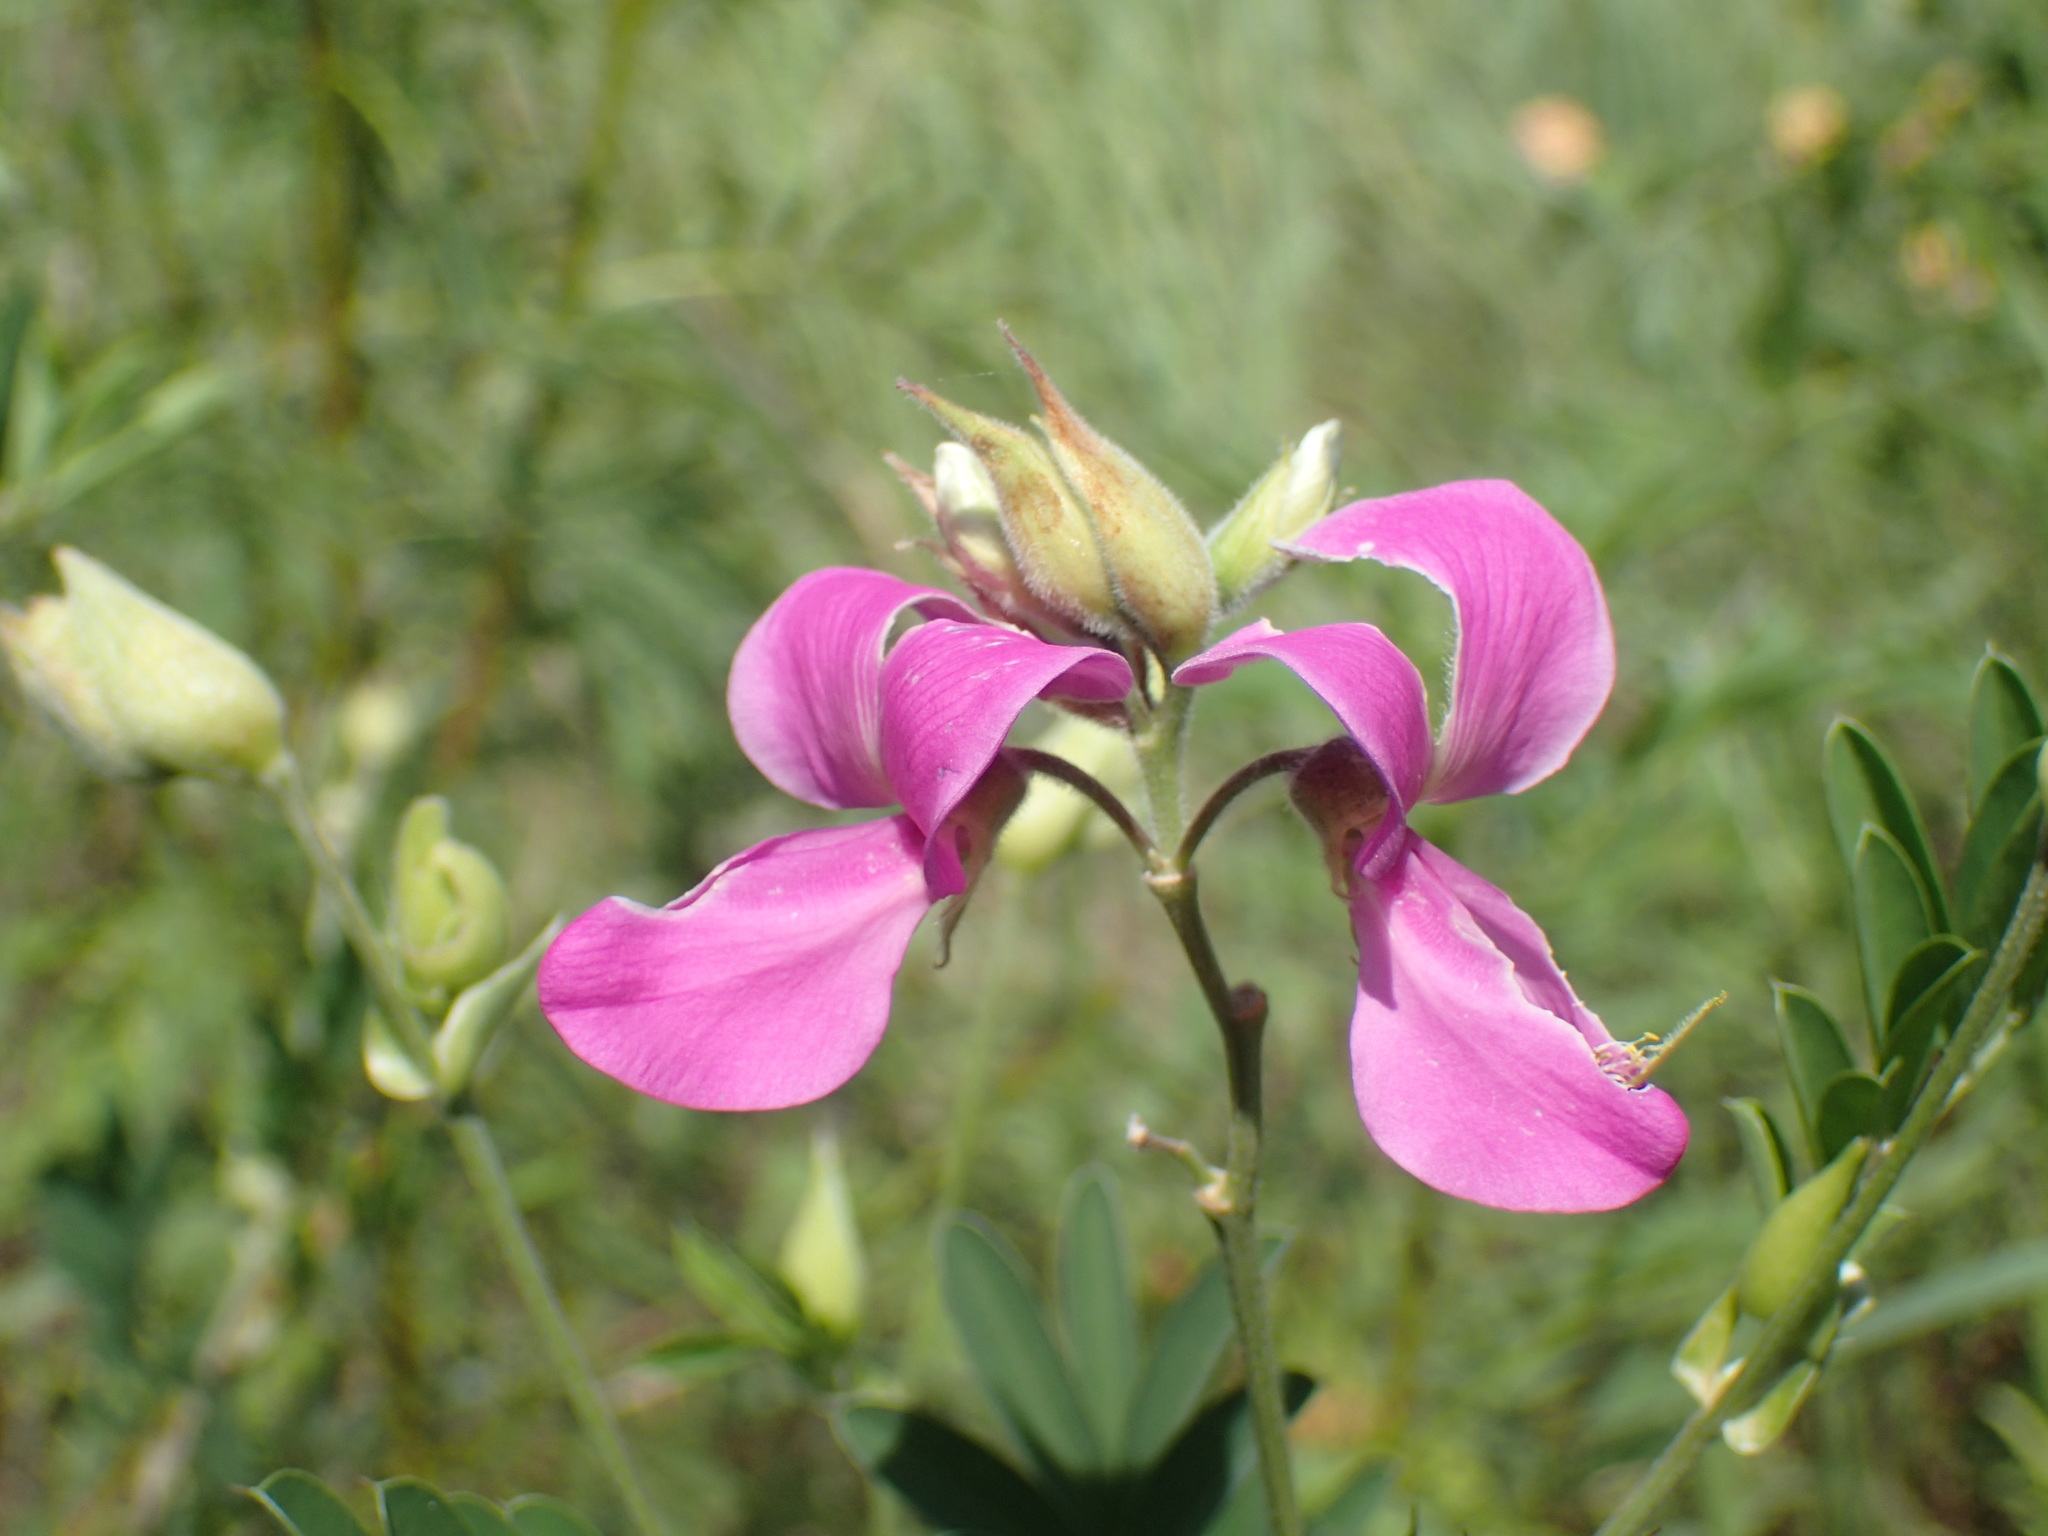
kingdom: Plantae
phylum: Tracheophyta
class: Magnoliopsida
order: Fabales
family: Fabaceae
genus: Tephrosia
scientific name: Tephrosia grandiflora
